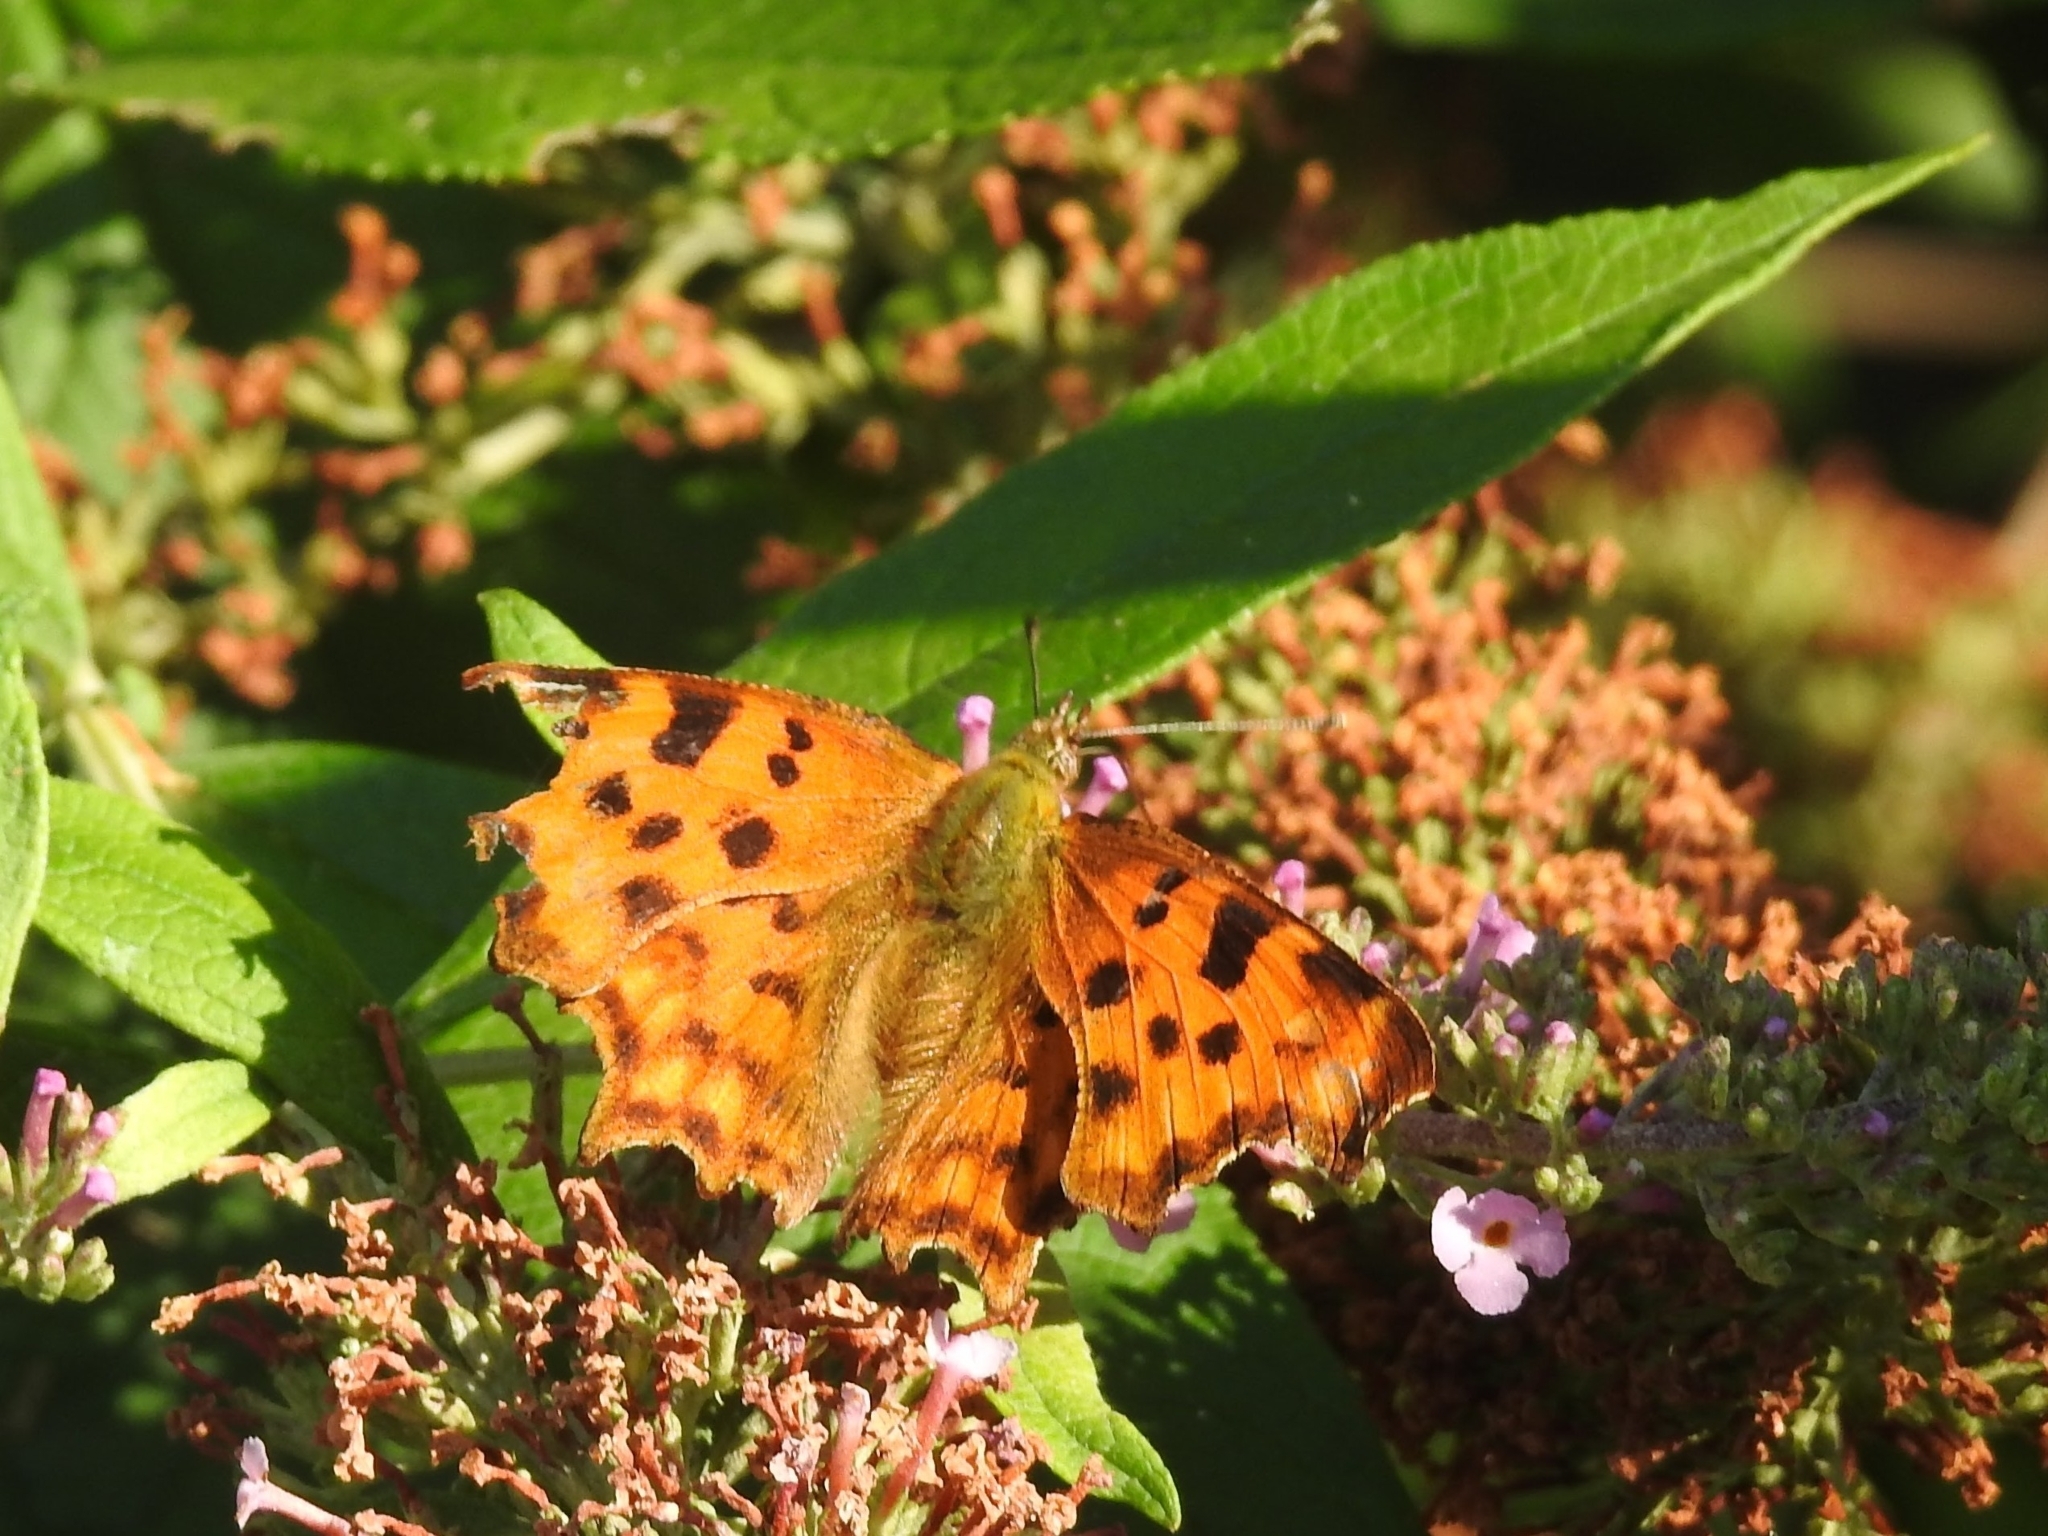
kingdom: Animalia
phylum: Arthropoda
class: Insecta
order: Lepidoptera
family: Nymphalidae
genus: Polygonia
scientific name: Polygonia c-album
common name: Comma
